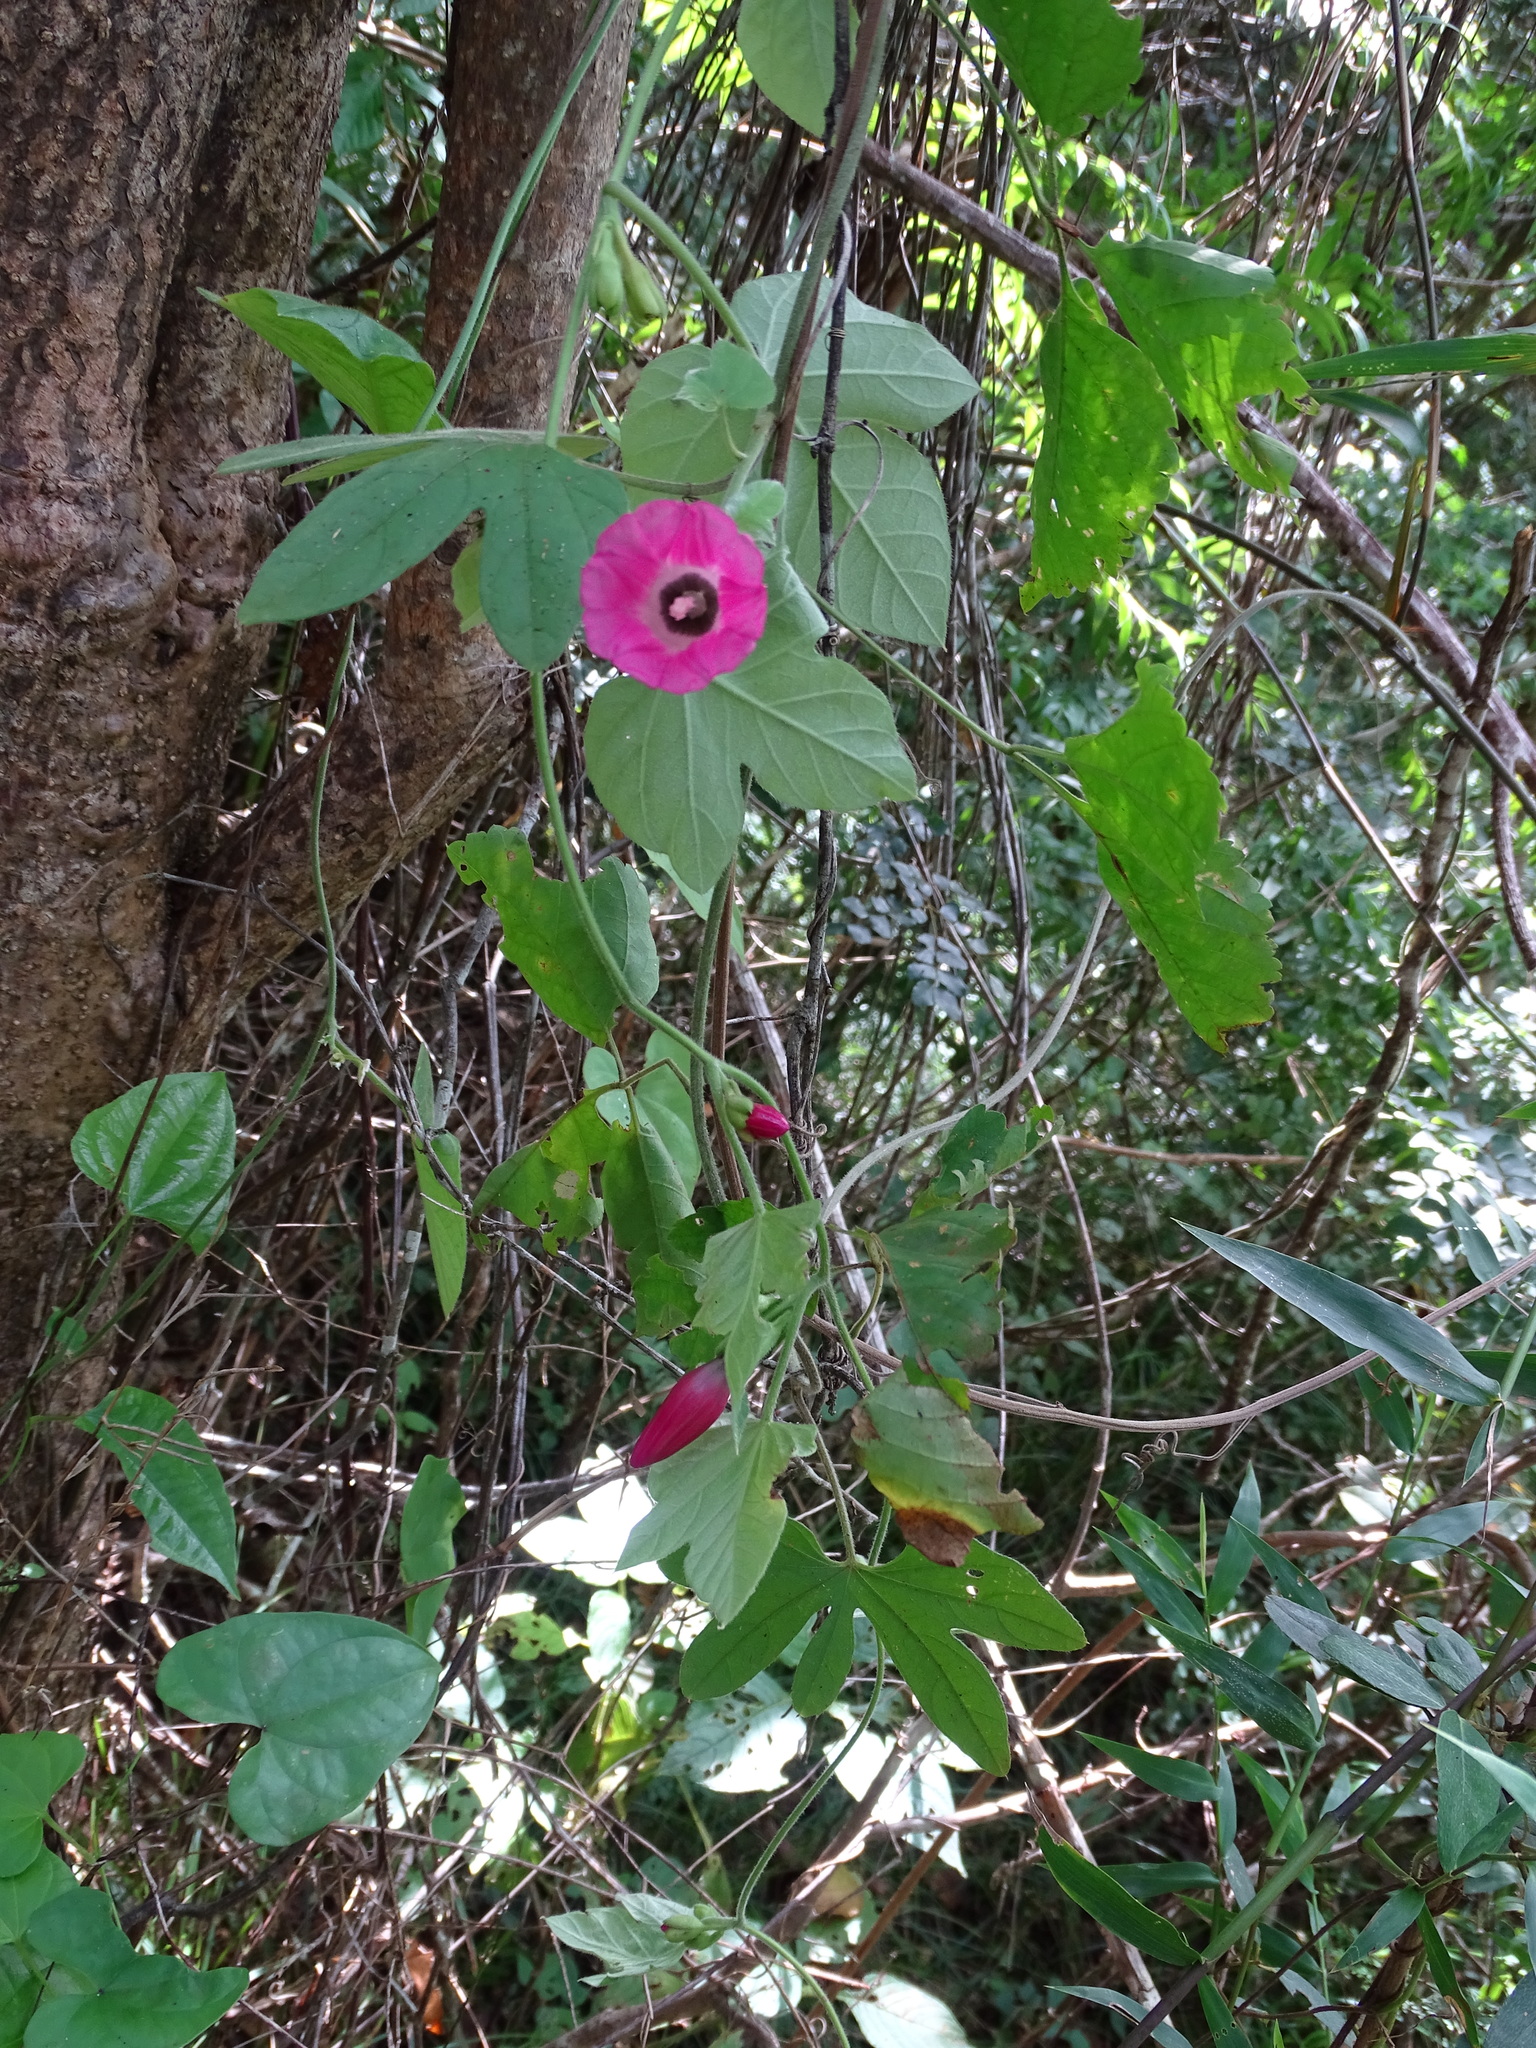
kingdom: Plantae
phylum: Tracheophyta
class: Magnoliopsida
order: Solanales
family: Convolvulaceae
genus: Ipomoea
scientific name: Ipomoea peteri
